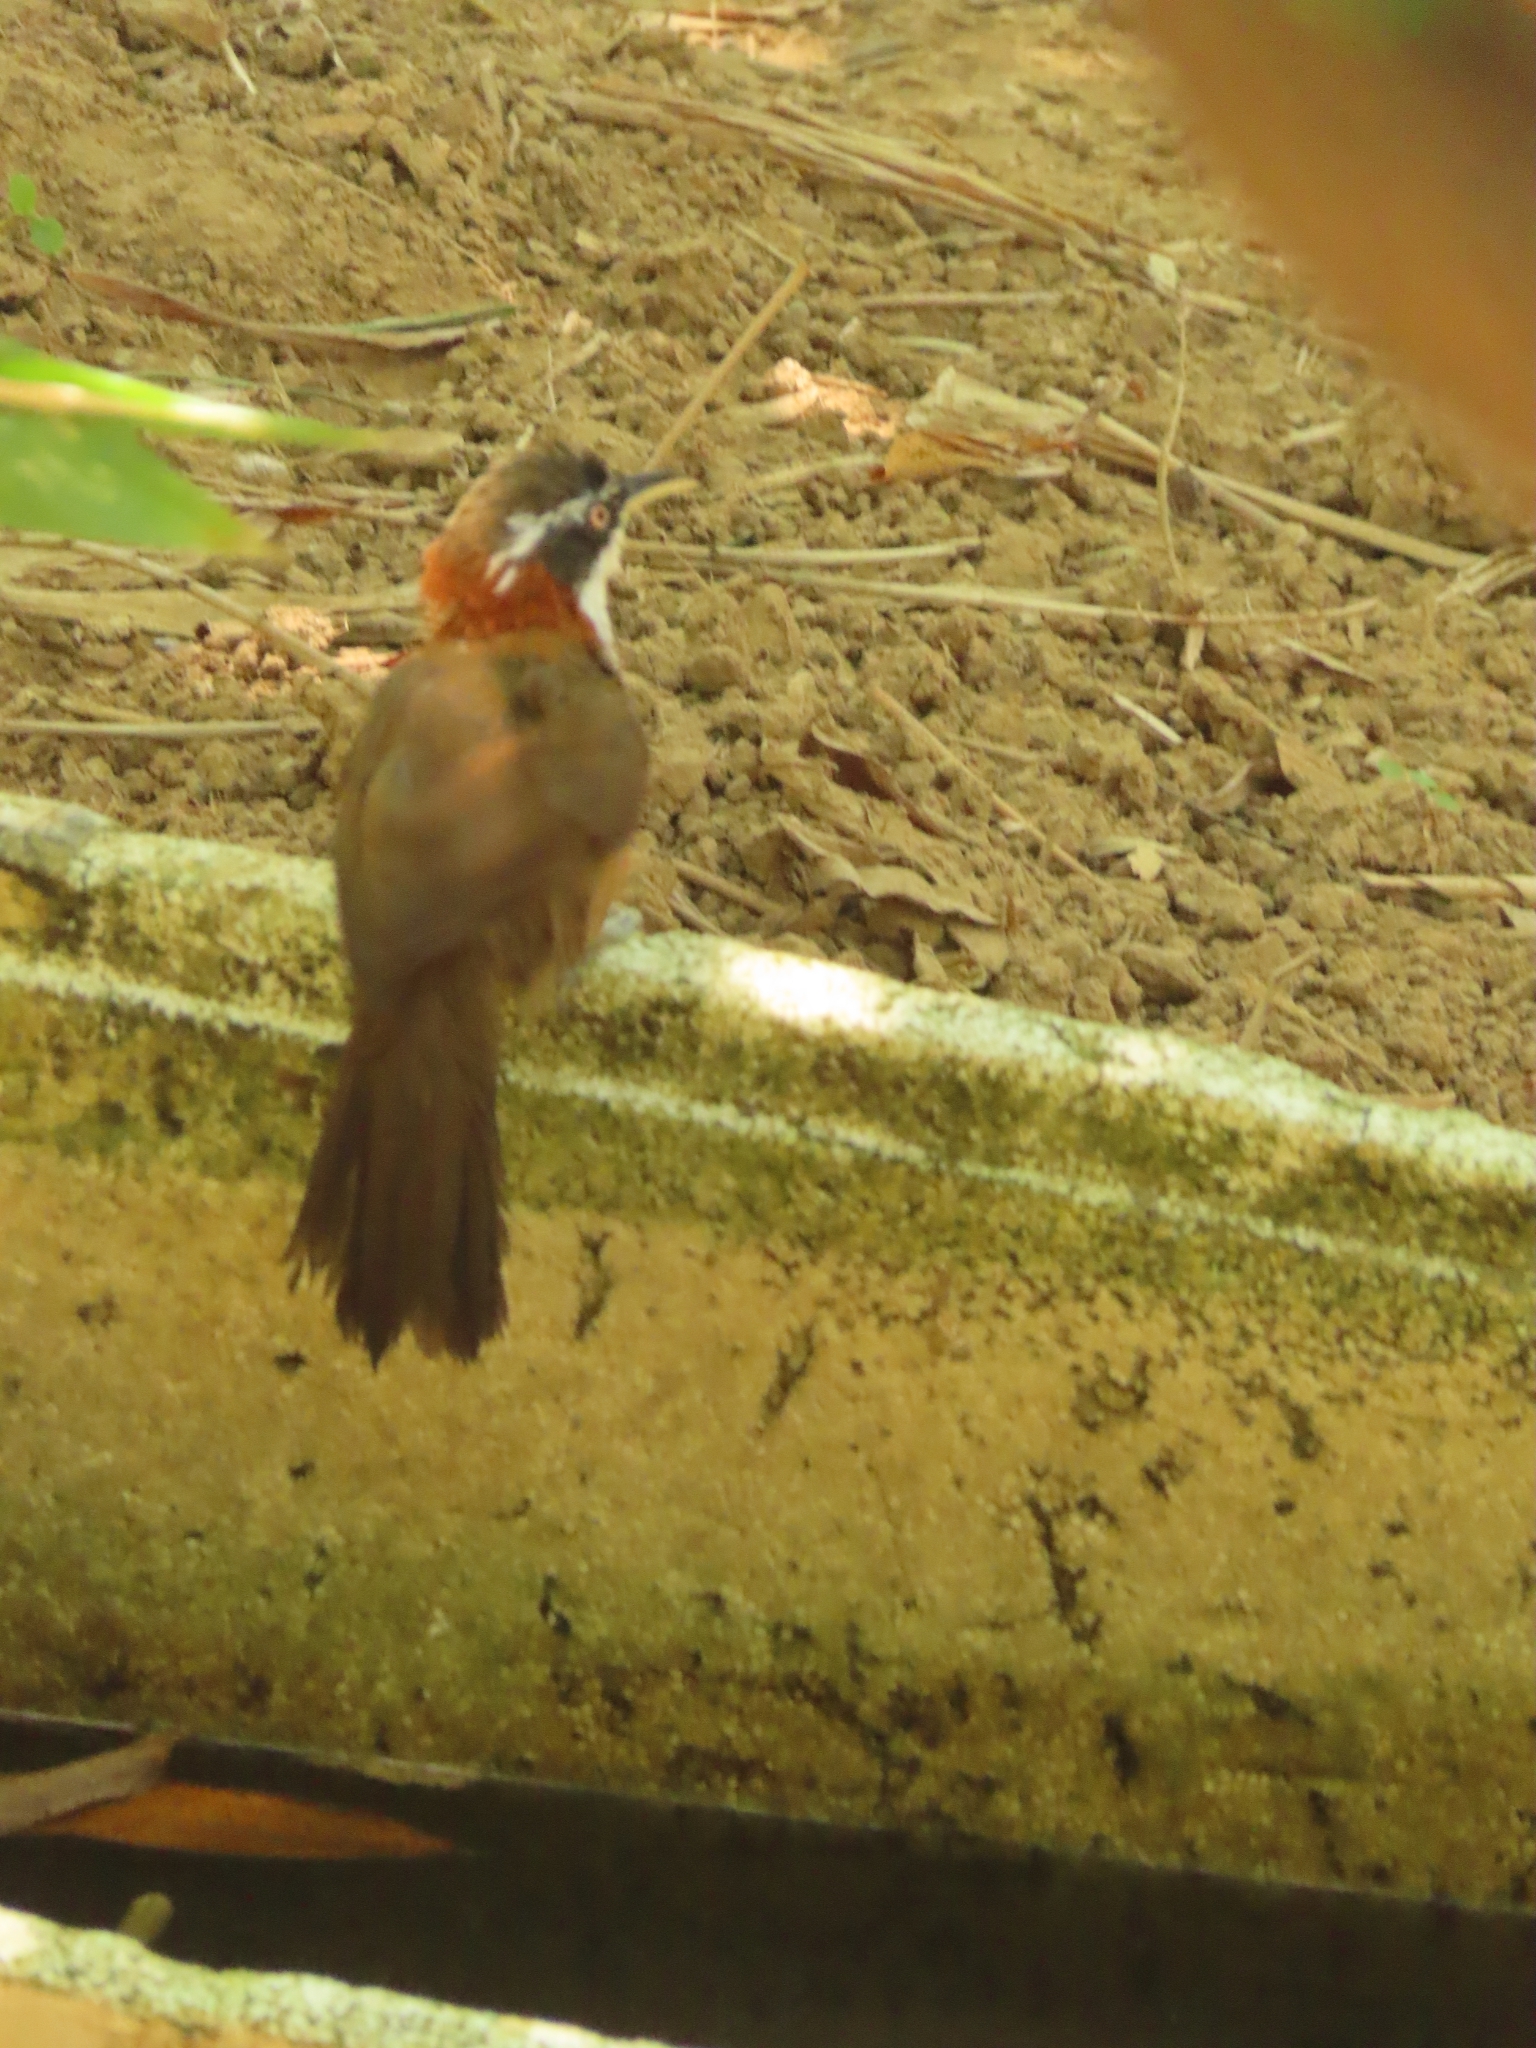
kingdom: Animalia
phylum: Chordata
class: Aves
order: Passeriformes
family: Timaliidae
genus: Pomatorhinus
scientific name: Pomatorhinus musicus
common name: Taiwan scimitar-babbler
